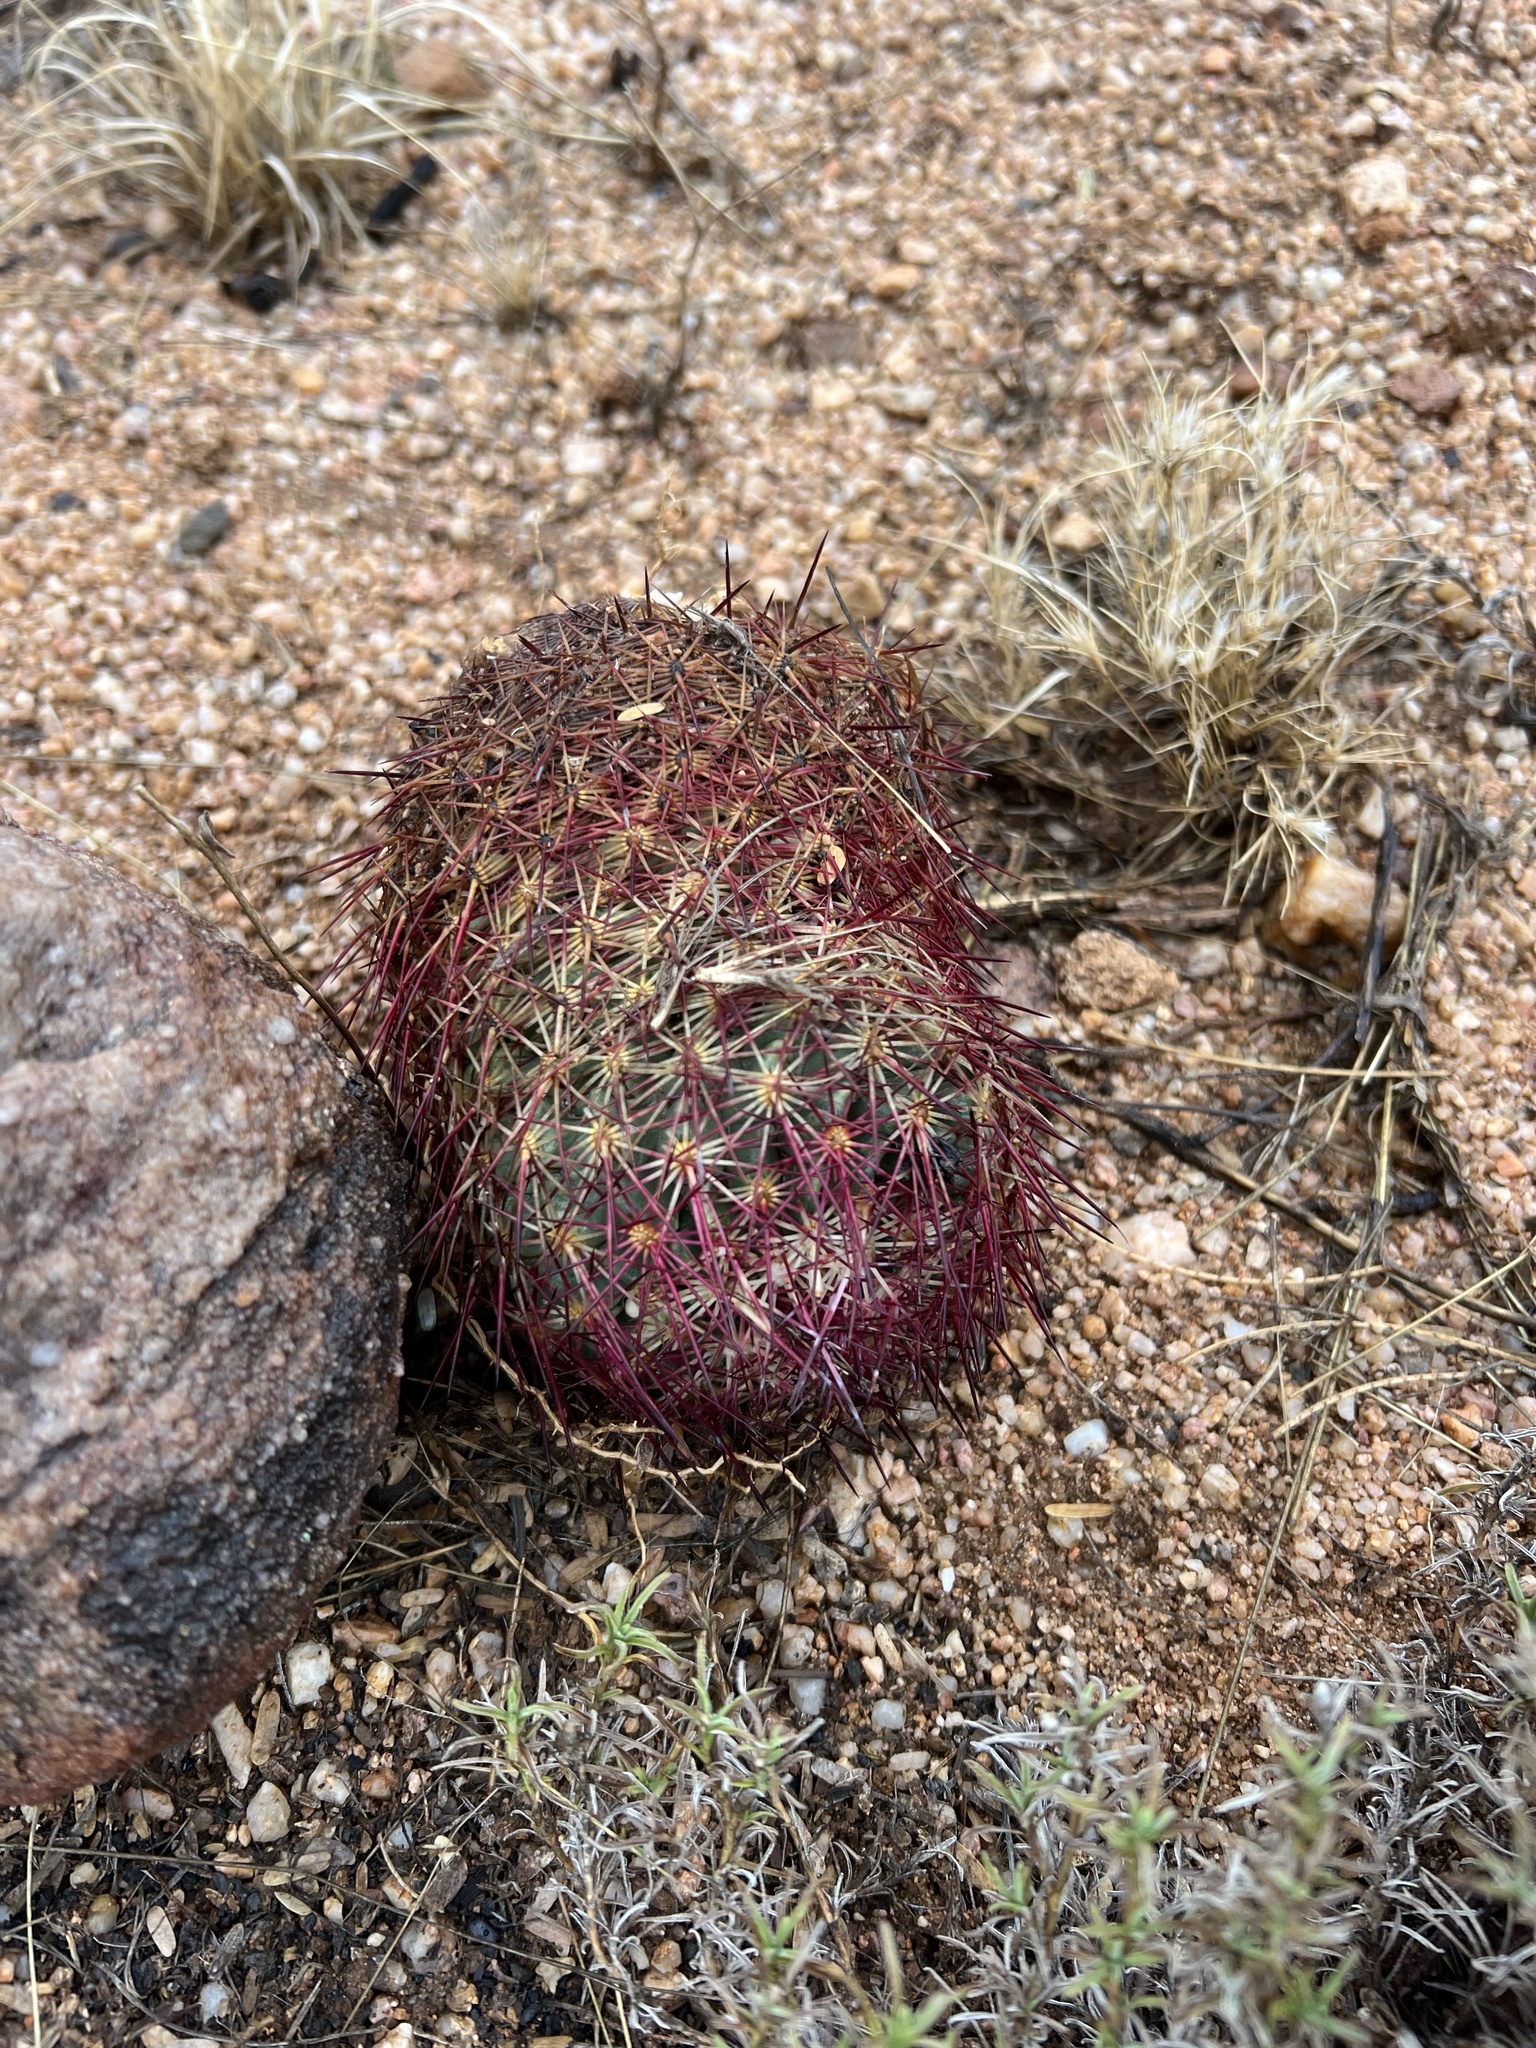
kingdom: Plantae
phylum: Tracheophyta
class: Magnoliopsida
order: Caryophyllales
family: Cactaceae
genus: Sclerocactus
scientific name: Sclerocactus johnsonii
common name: Eight-spine fishhook cactus
